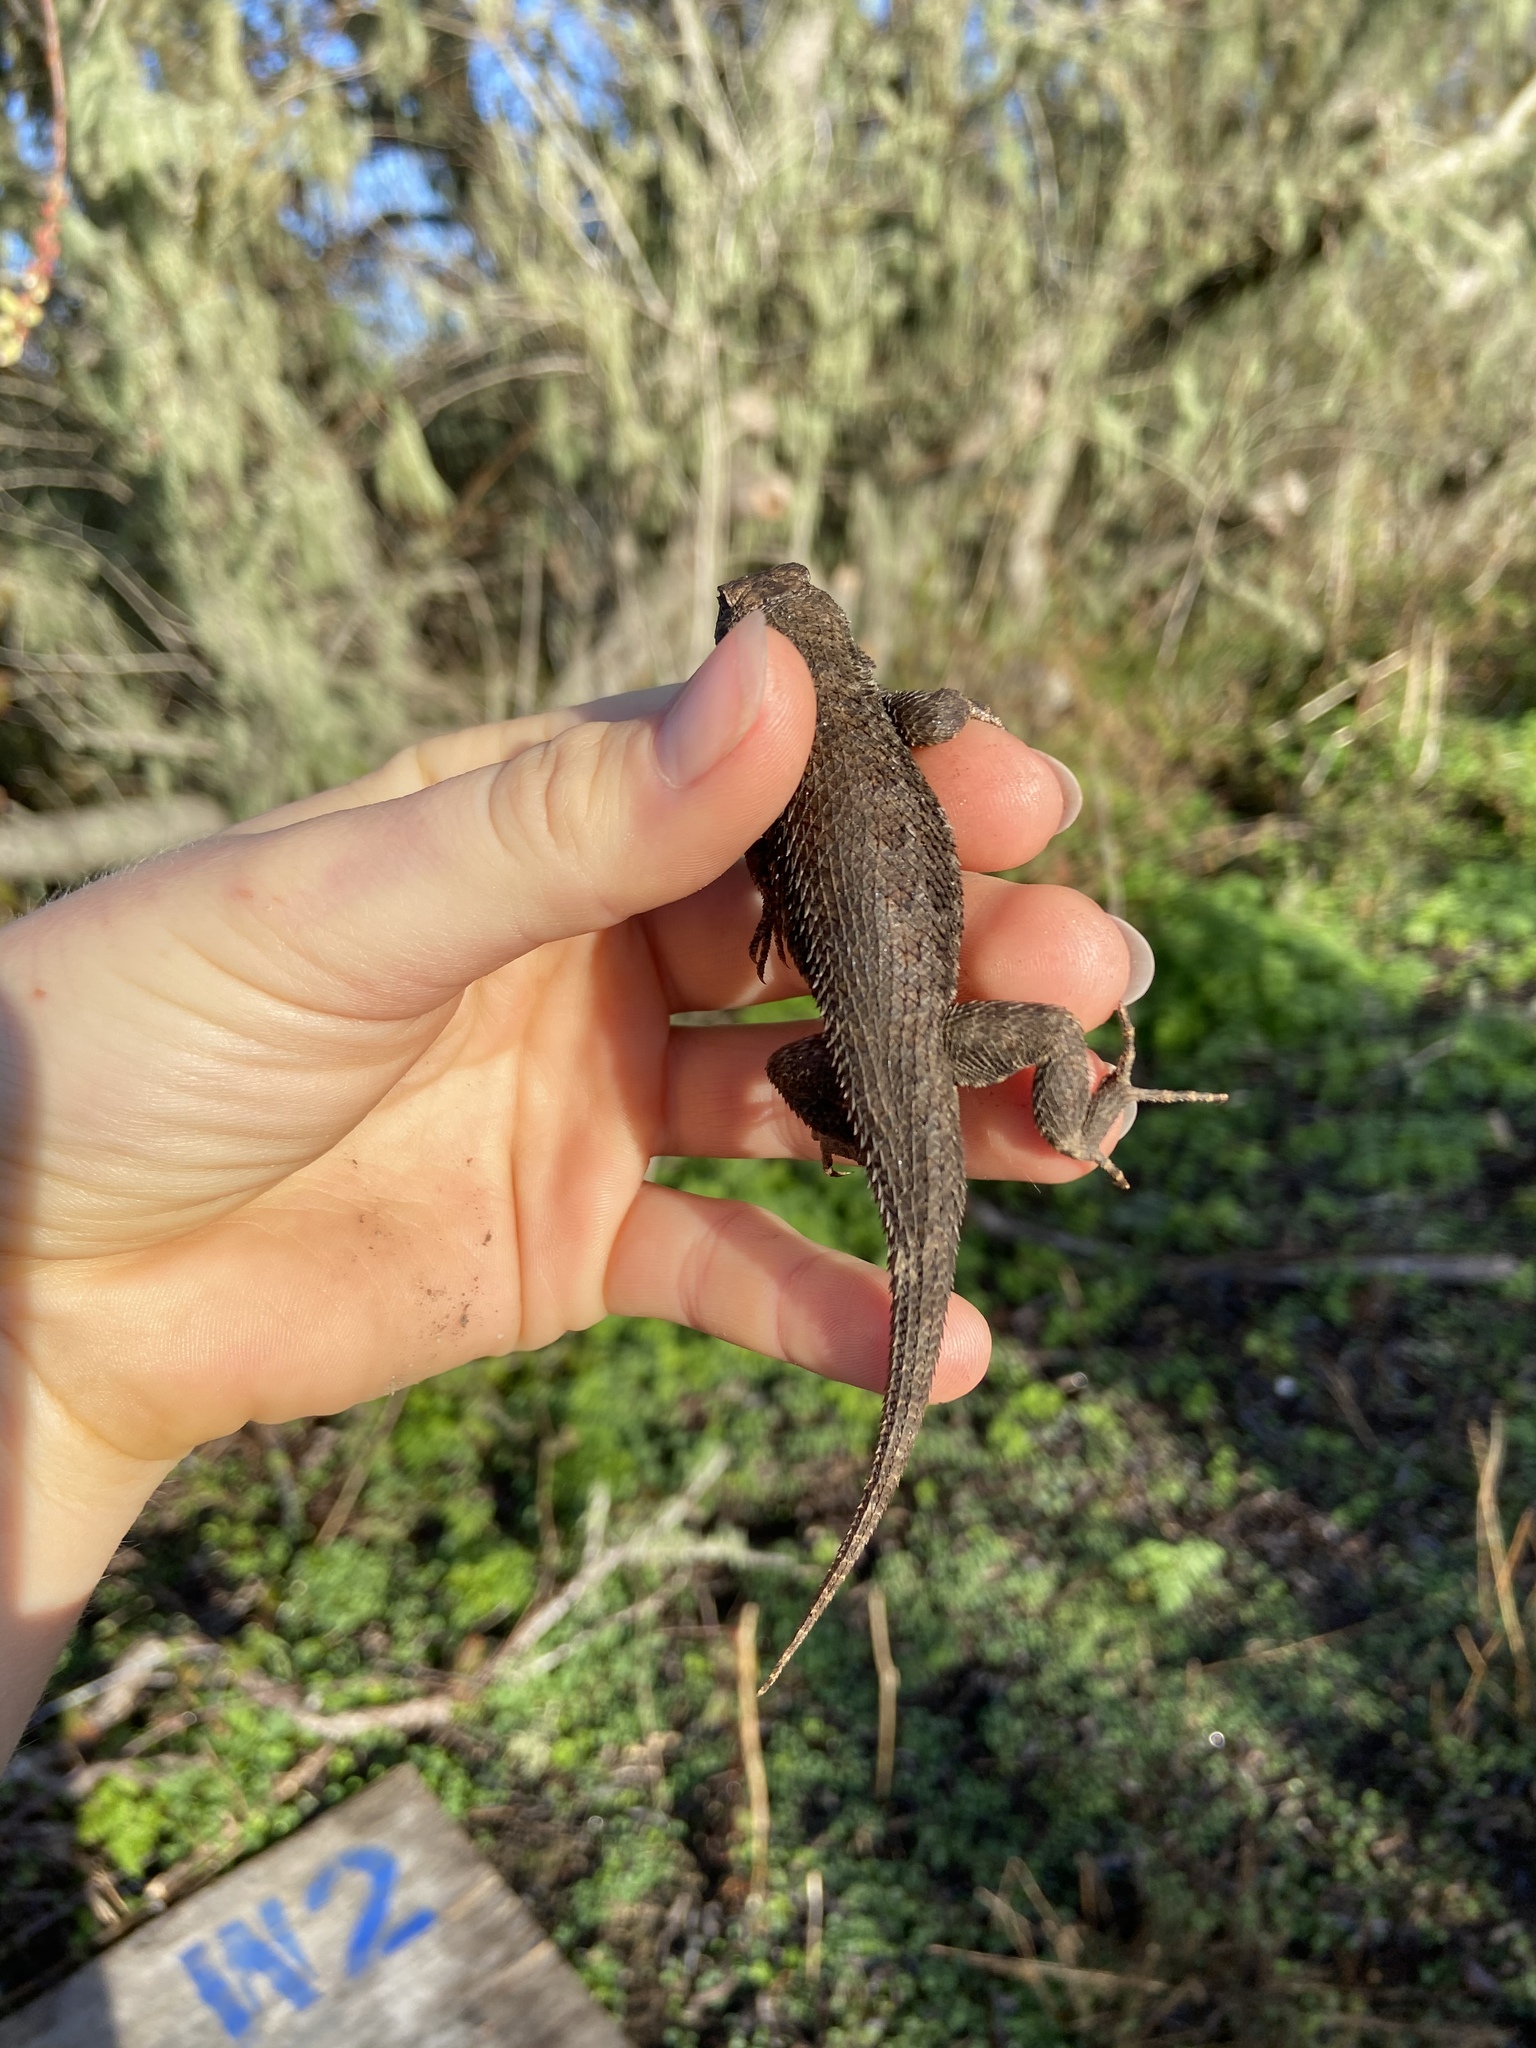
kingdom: Animalia
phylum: Chordata
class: Squamata
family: Phrynosomatidae
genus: Sceloporus
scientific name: Sceloporus occidentalis
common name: Western fence lizard
